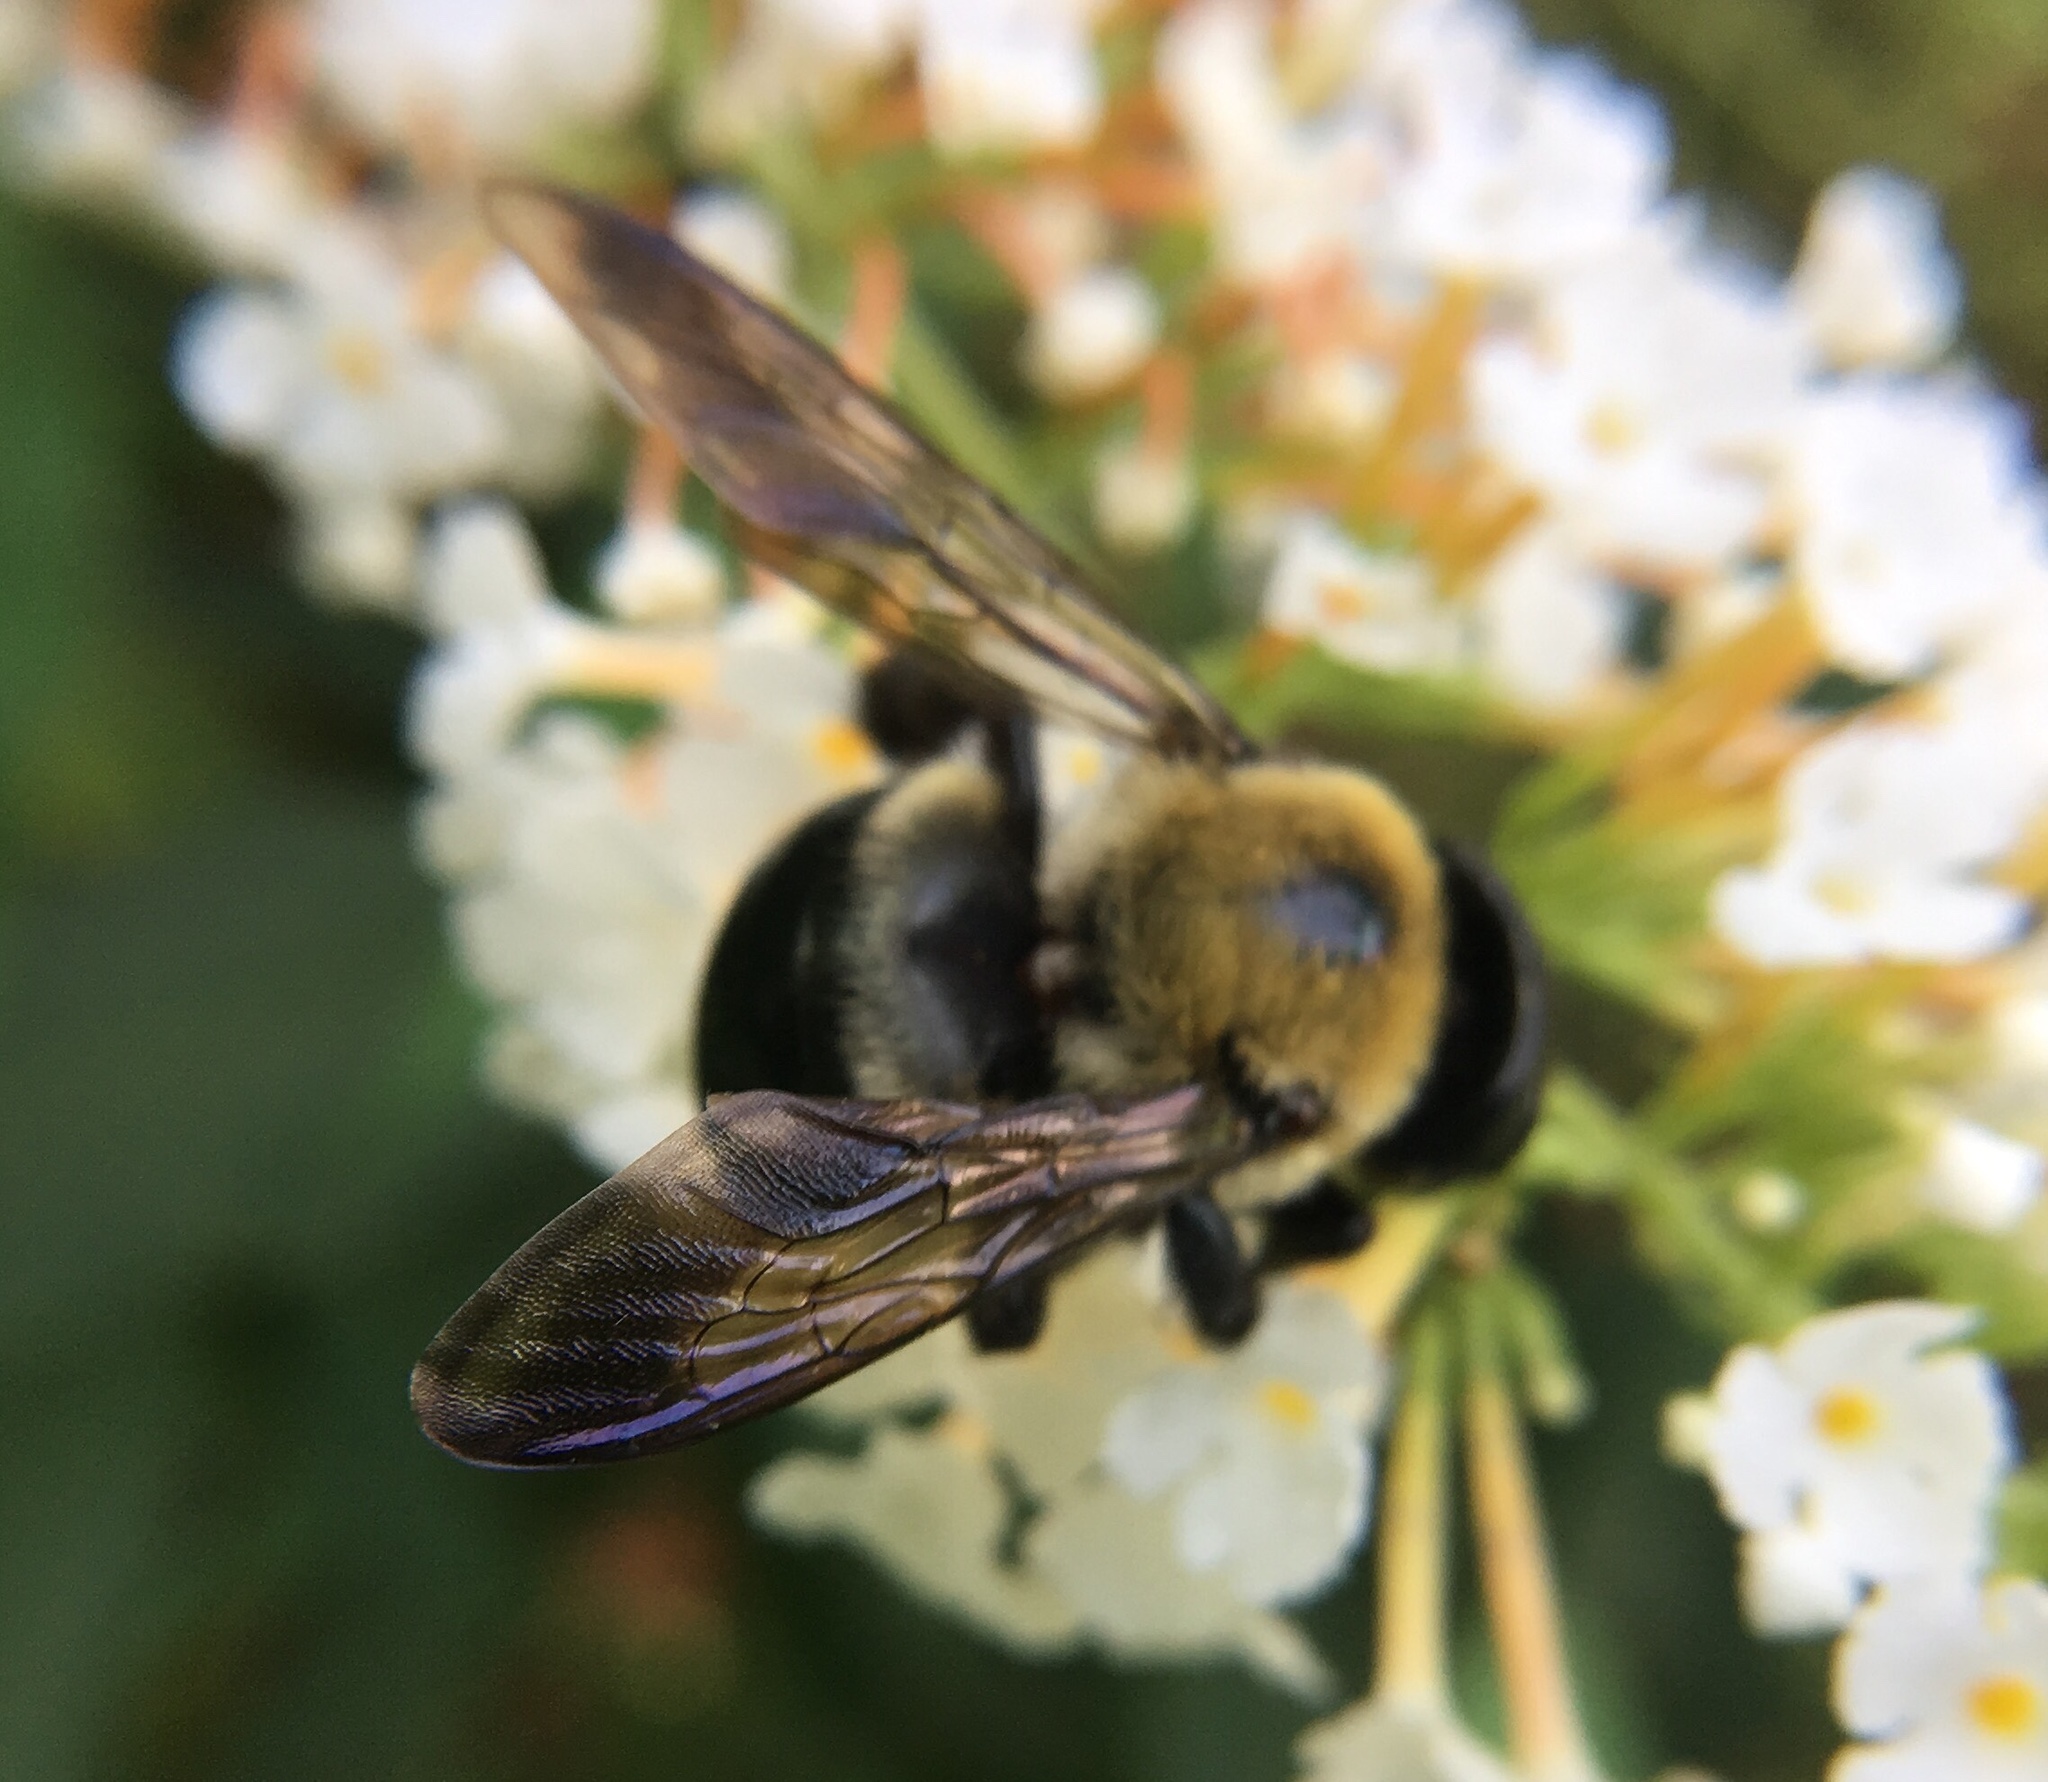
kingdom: Animalia
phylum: Arthropoda
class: Insecta
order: Hymenoptera
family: Apidae
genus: Xylocopa
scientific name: Xylocopa virginica
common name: Carpenter bee
